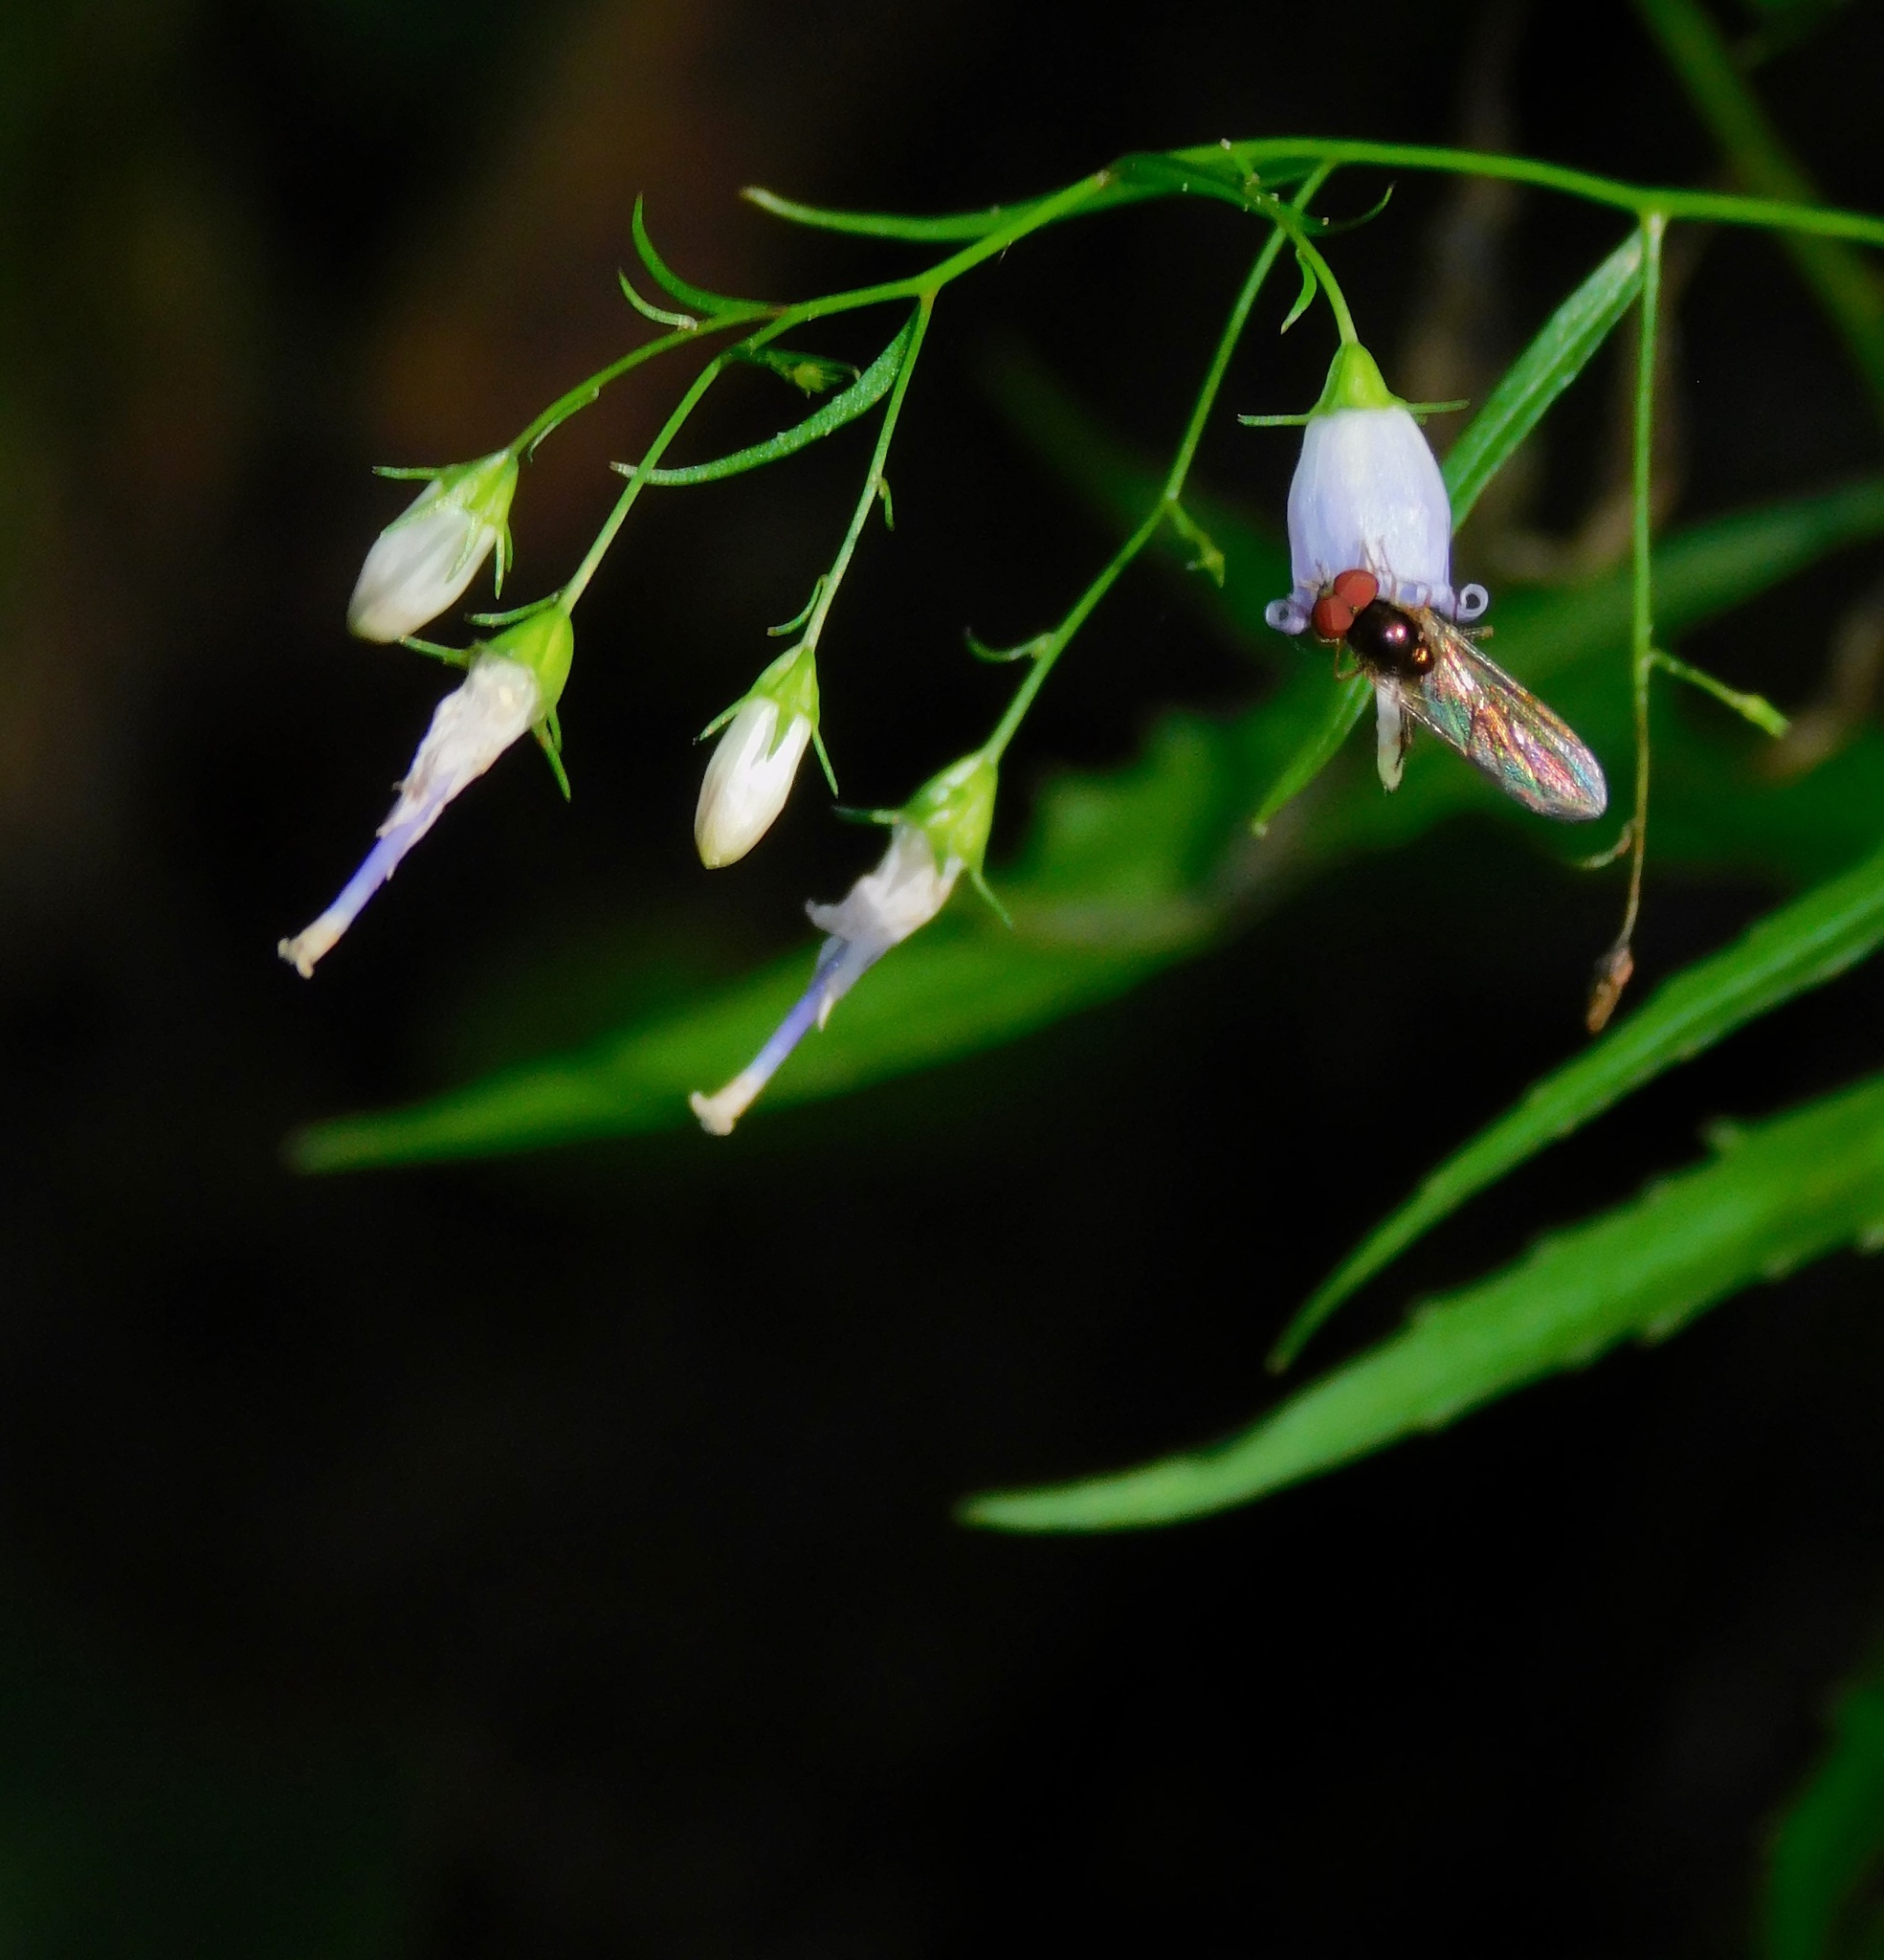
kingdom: Plantae
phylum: Tracheophyta
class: Magnoliopsida
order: Asterales
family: Campanulaceae
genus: Campanula
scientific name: Campanula divaricata
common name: Appalachian bellflower
